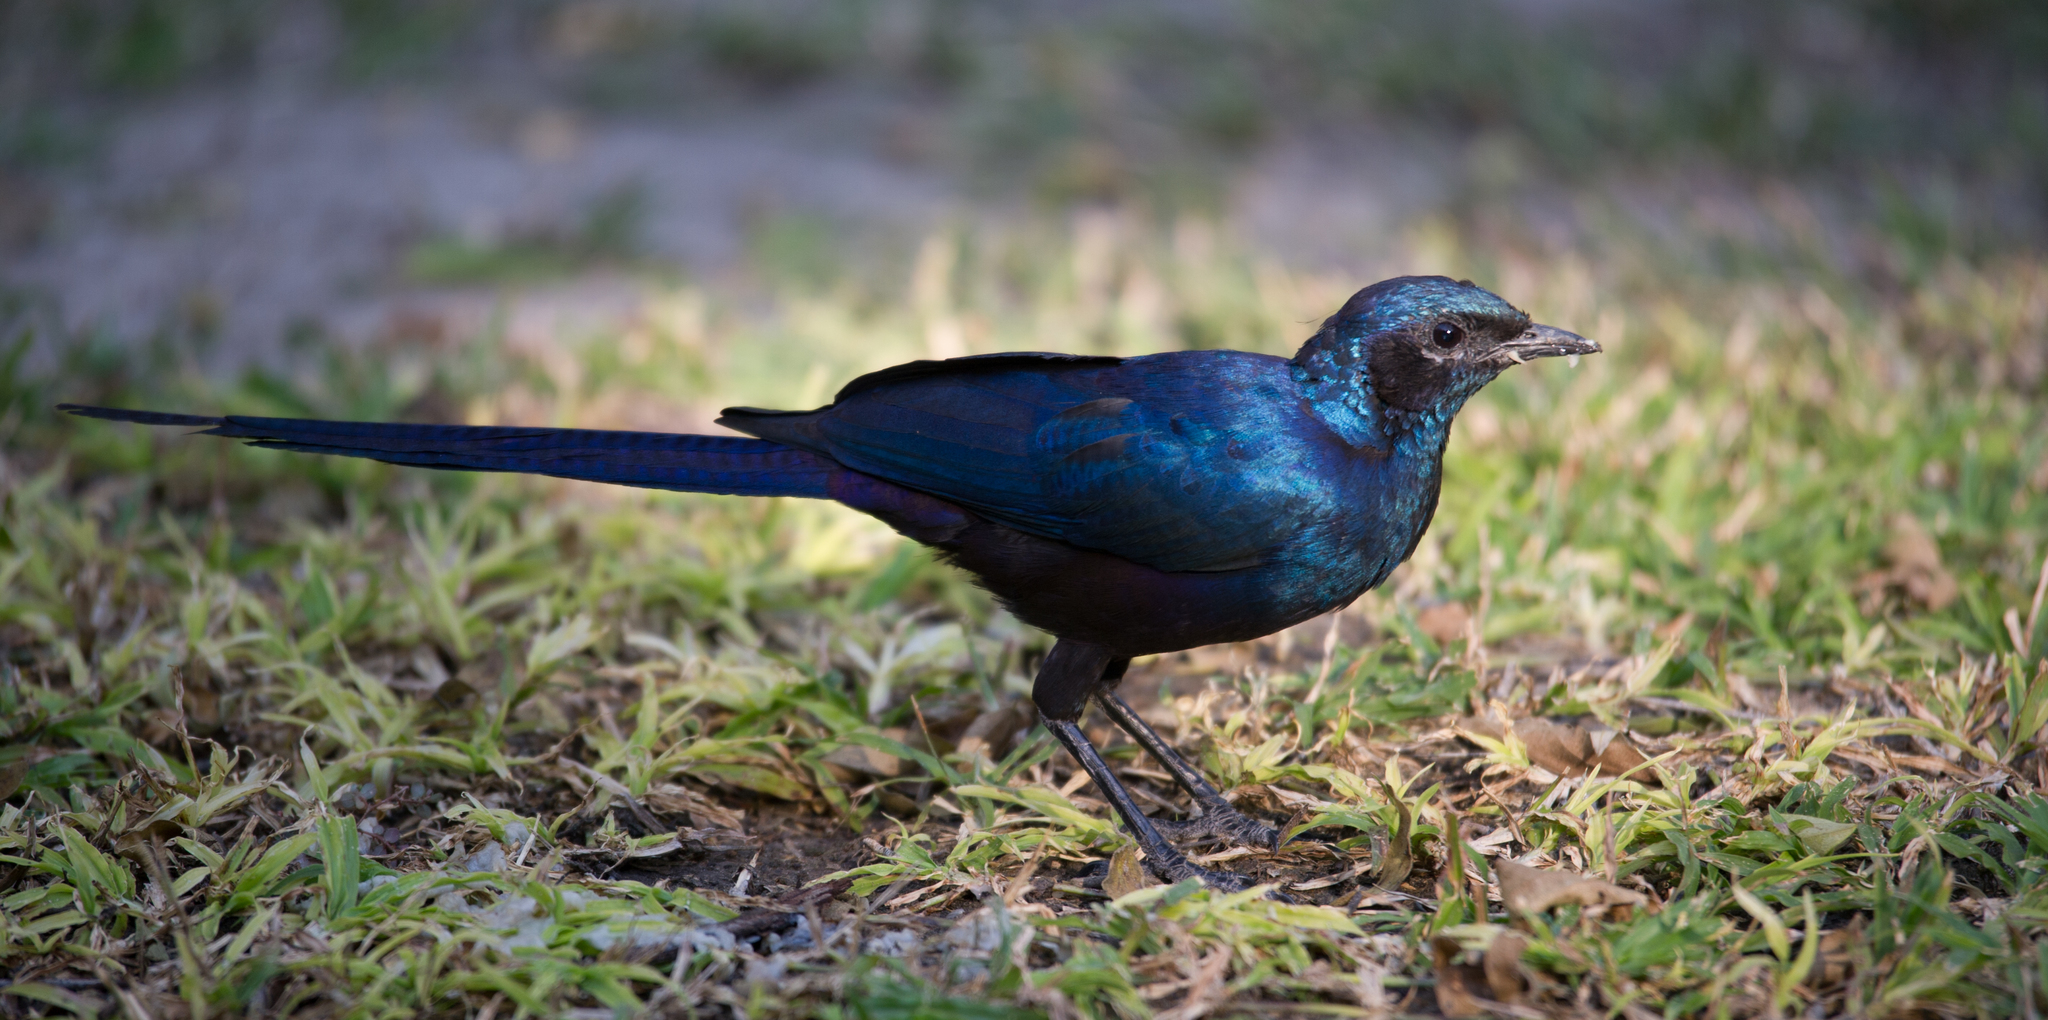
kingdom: Animalia
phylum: Chordata
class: Aves
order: Passeriformes
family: Sturnidae
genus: Lamprotornis
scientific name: Lamprotornis mevesii
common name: Meves's starling
